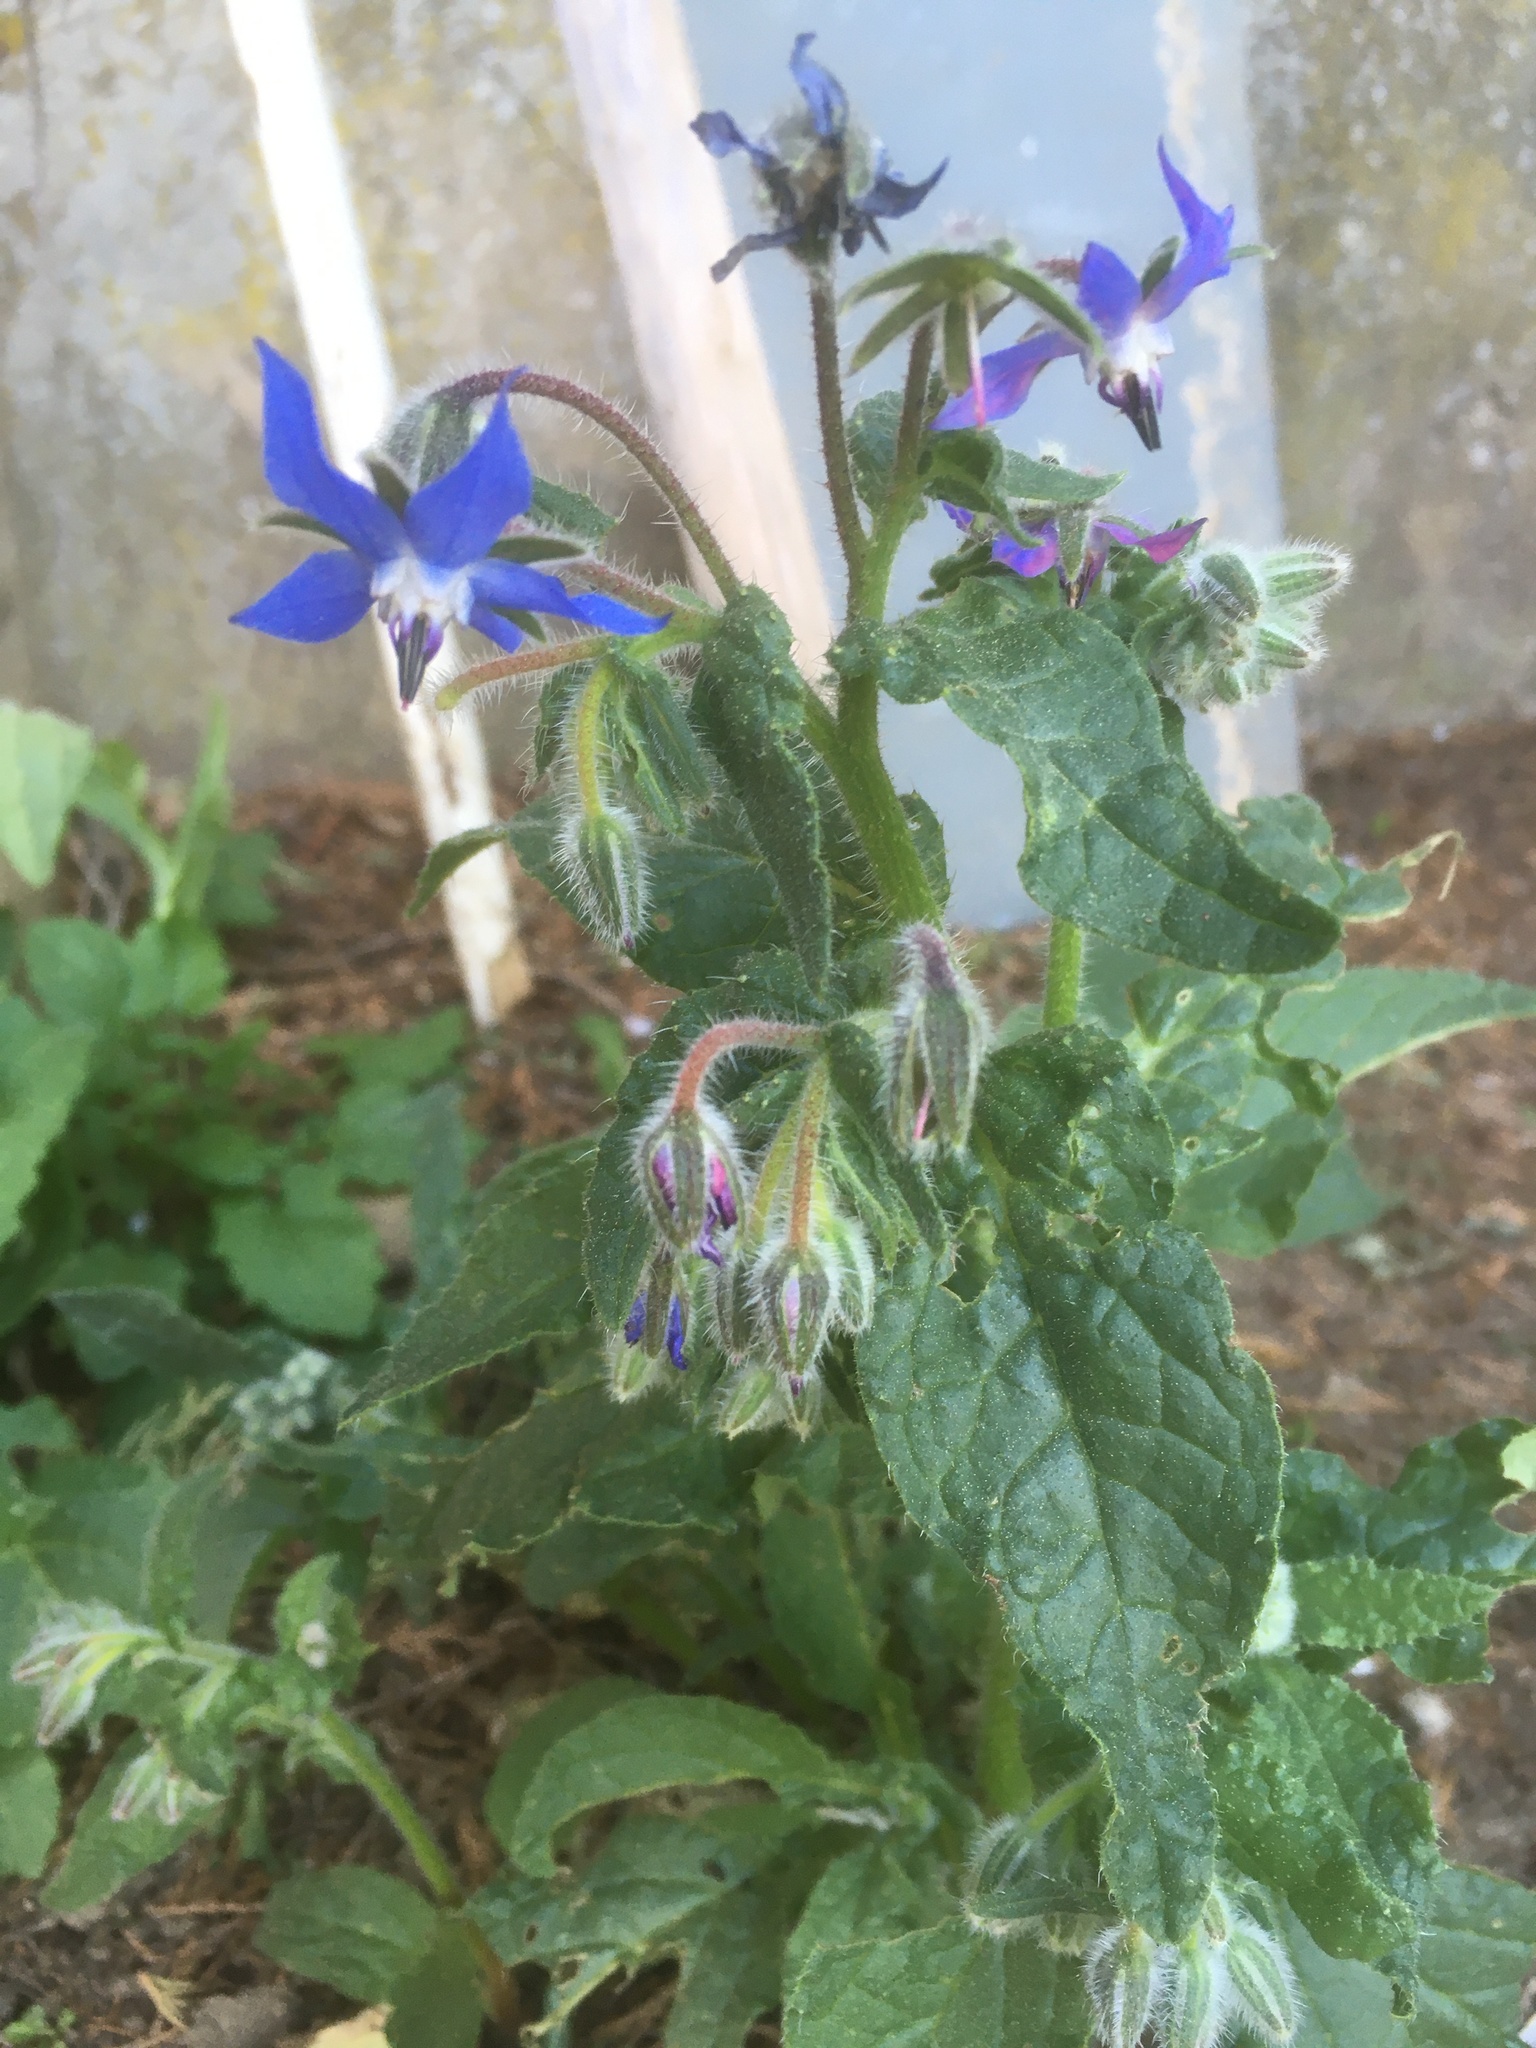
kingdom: Plantae
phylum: Tracheophyta
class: Magnoliopsida
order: Boraginales
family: Boraginaceae
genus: Borago
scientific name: Borago officinalis
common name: Borage
